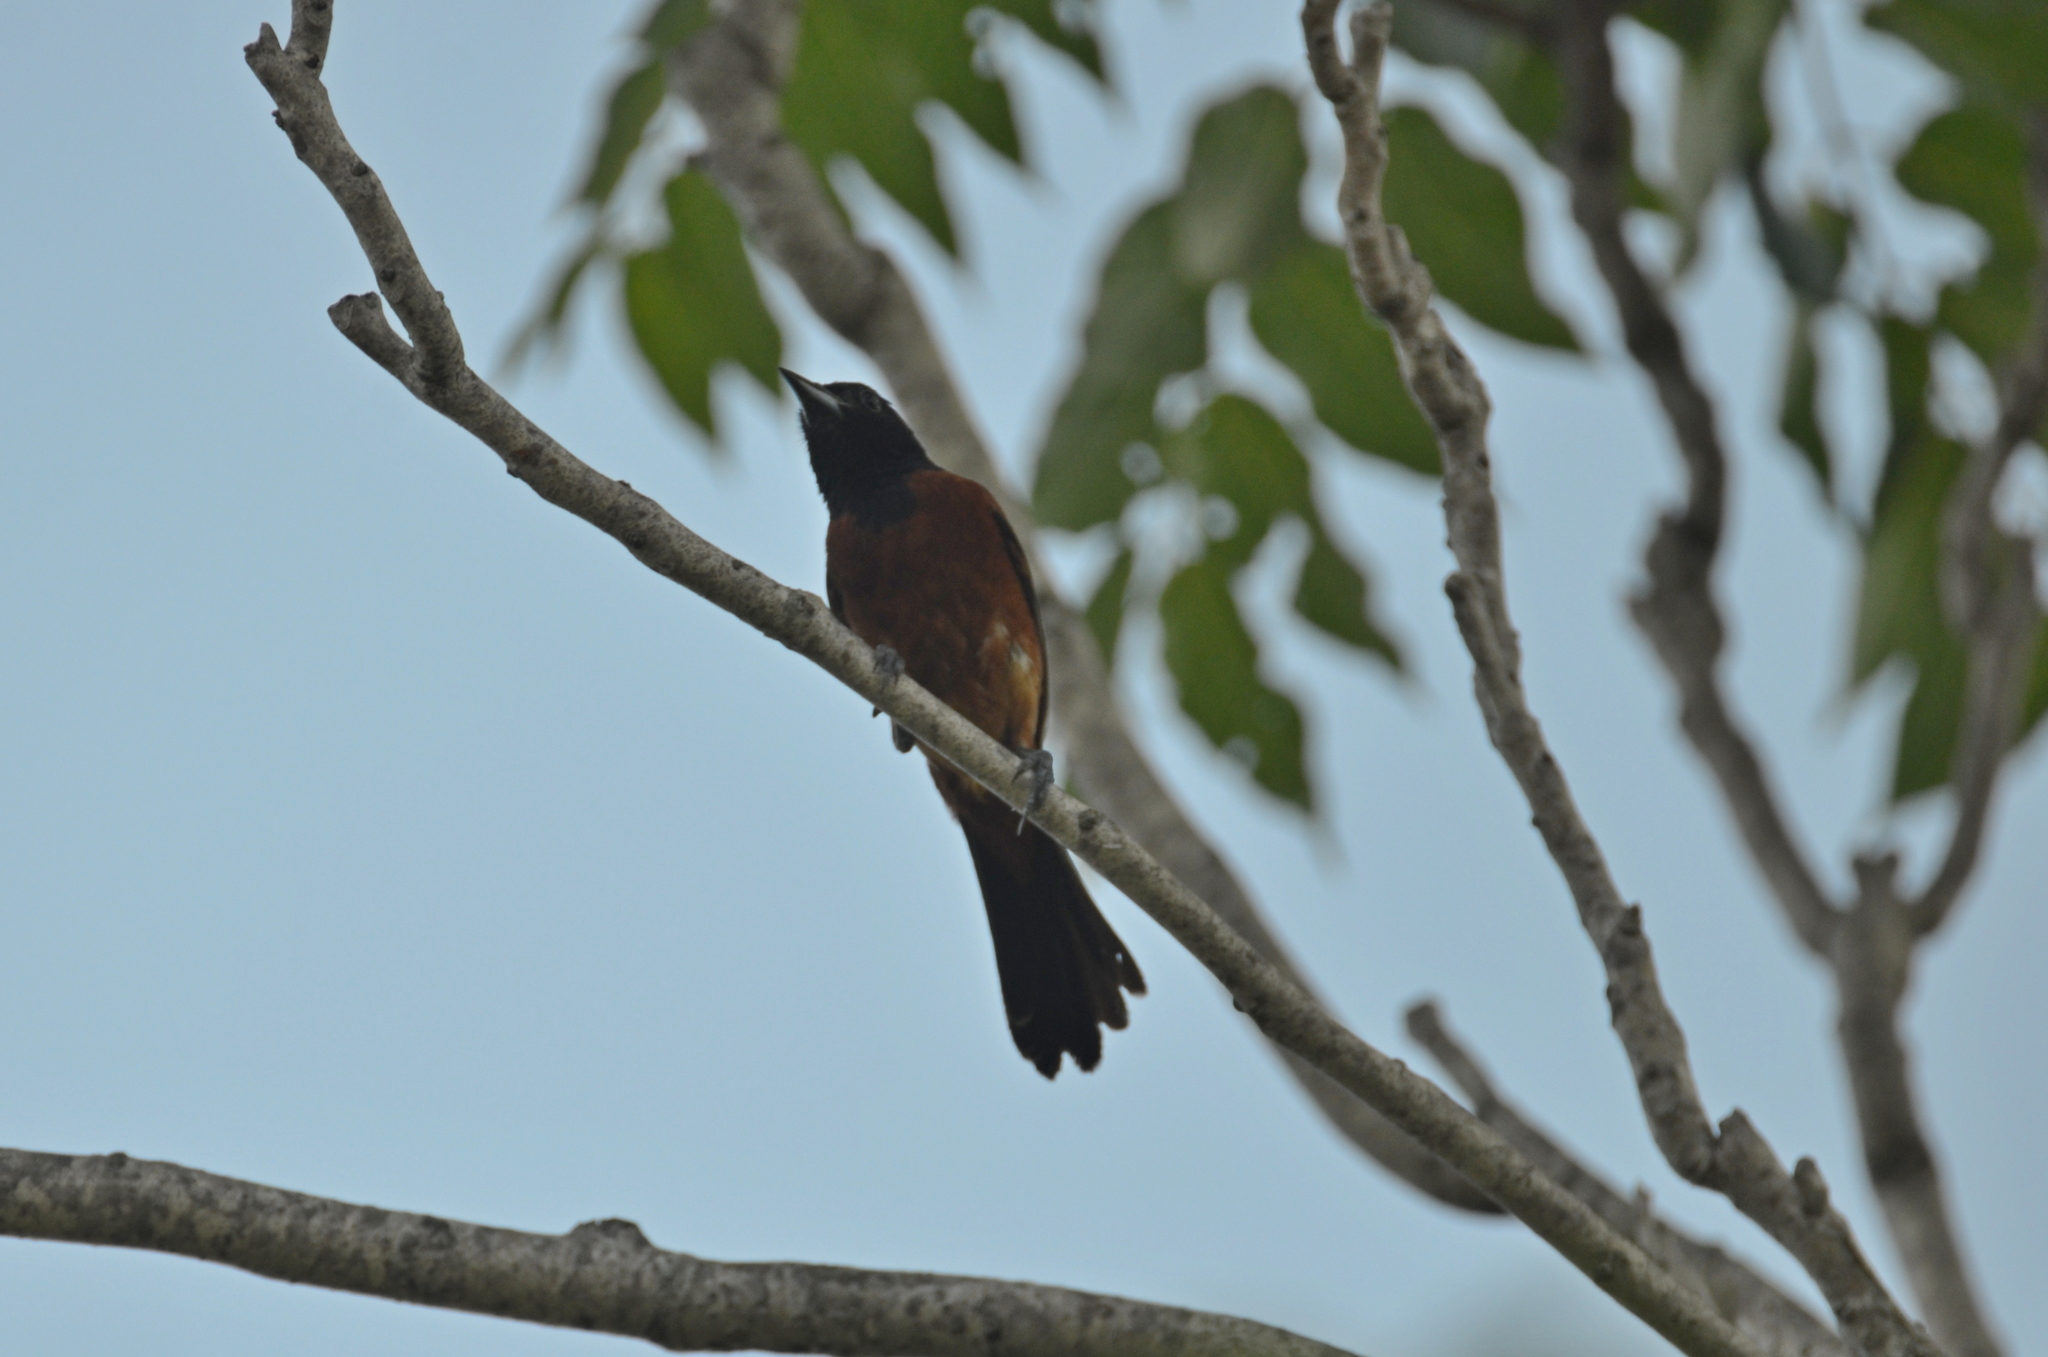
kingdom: Animalia
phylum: Chordata
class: Aves
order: Passeriformes
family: Icteridae
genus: Icterus
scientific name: Icterus spurius
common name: Orchard oriole
